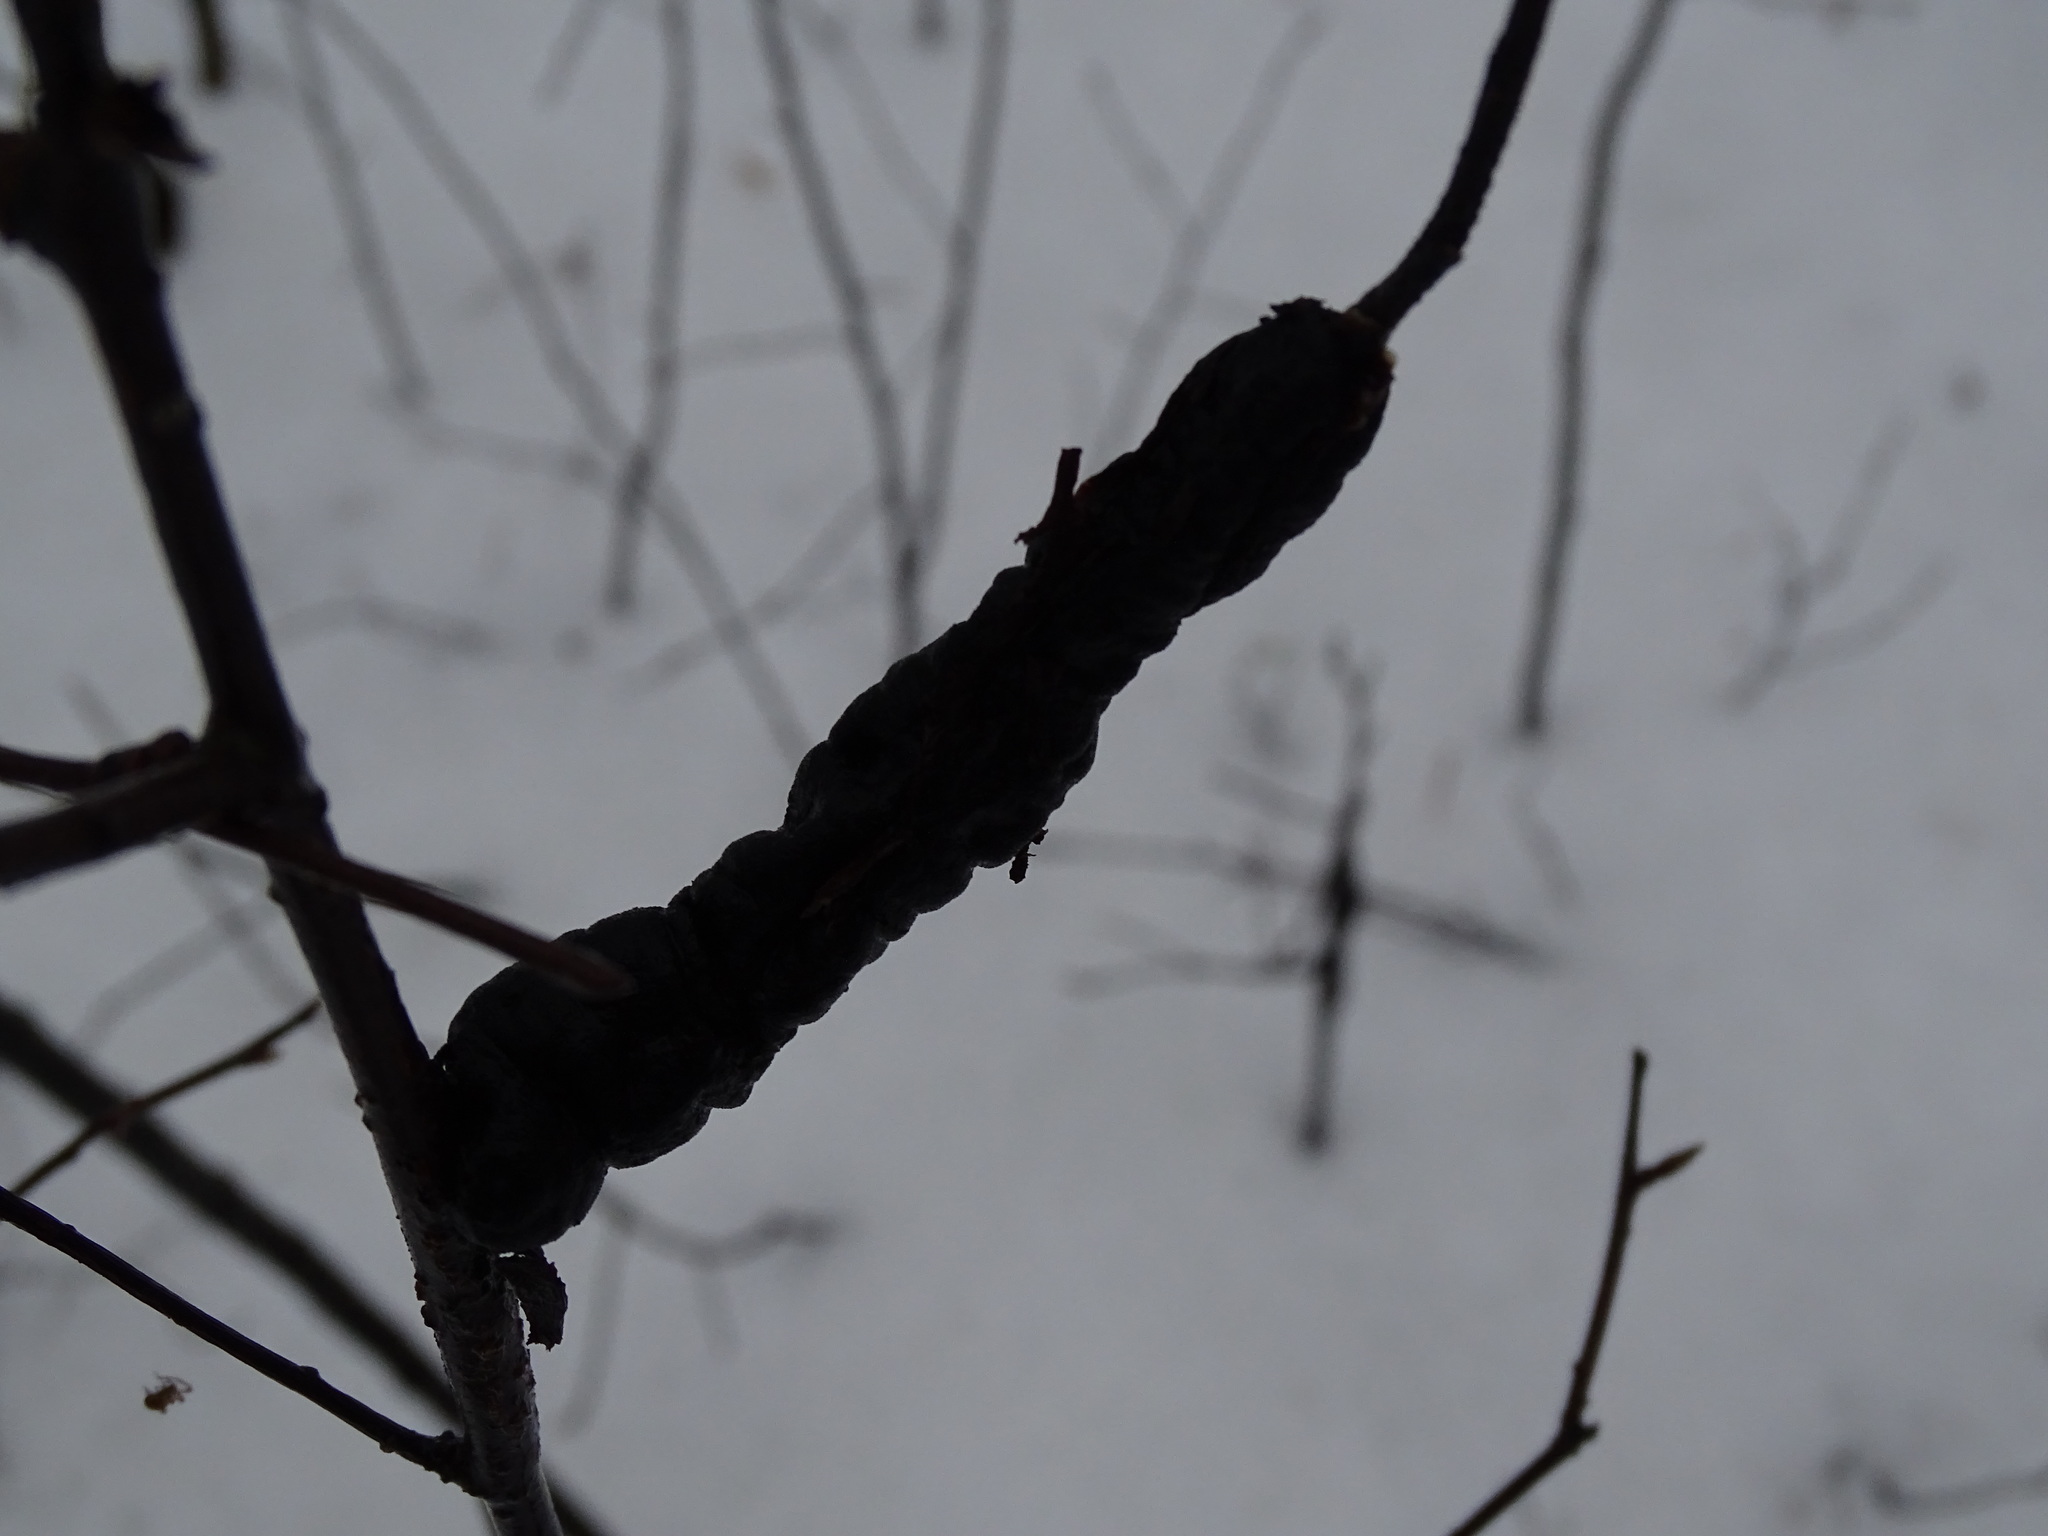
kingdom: Fungi
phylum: Ascomycota
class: Dothideomycetes
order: Venturiales
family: Venturiaceae
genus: Apiosporina
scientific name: Apiosporina morbosa
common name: Black knot
